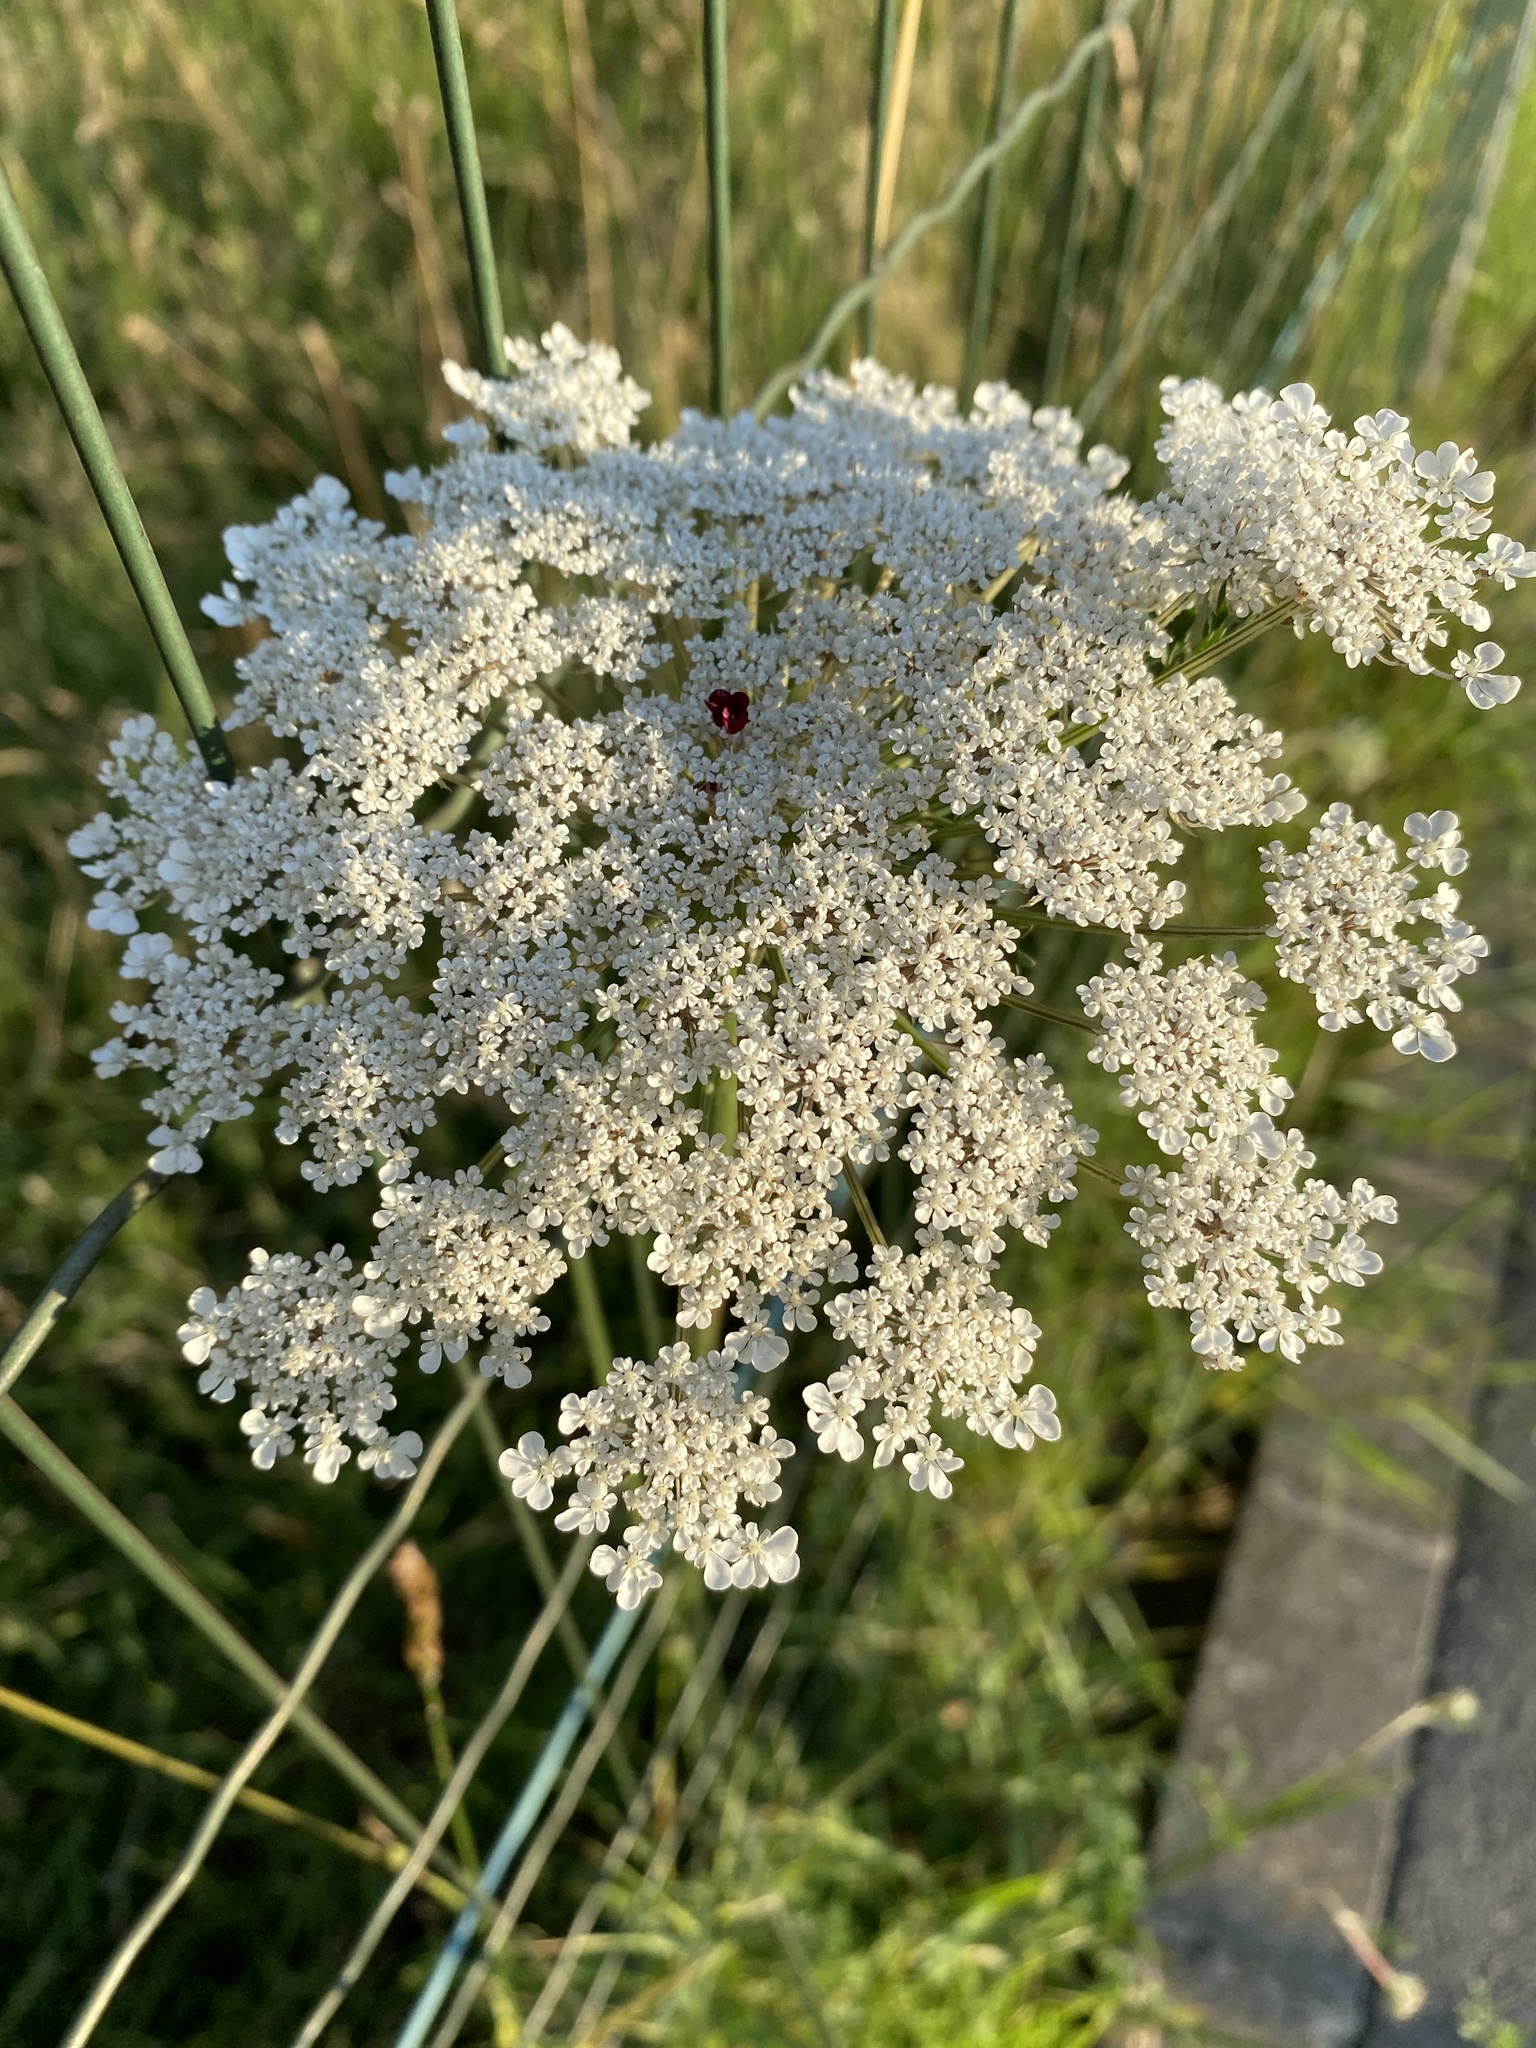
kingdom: Plantae
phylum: Tracheophyta
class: Magnoliopsida
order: Apiales
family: Apiaceae
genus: Daucus
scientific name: Daucus carota
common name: Wild carrot
